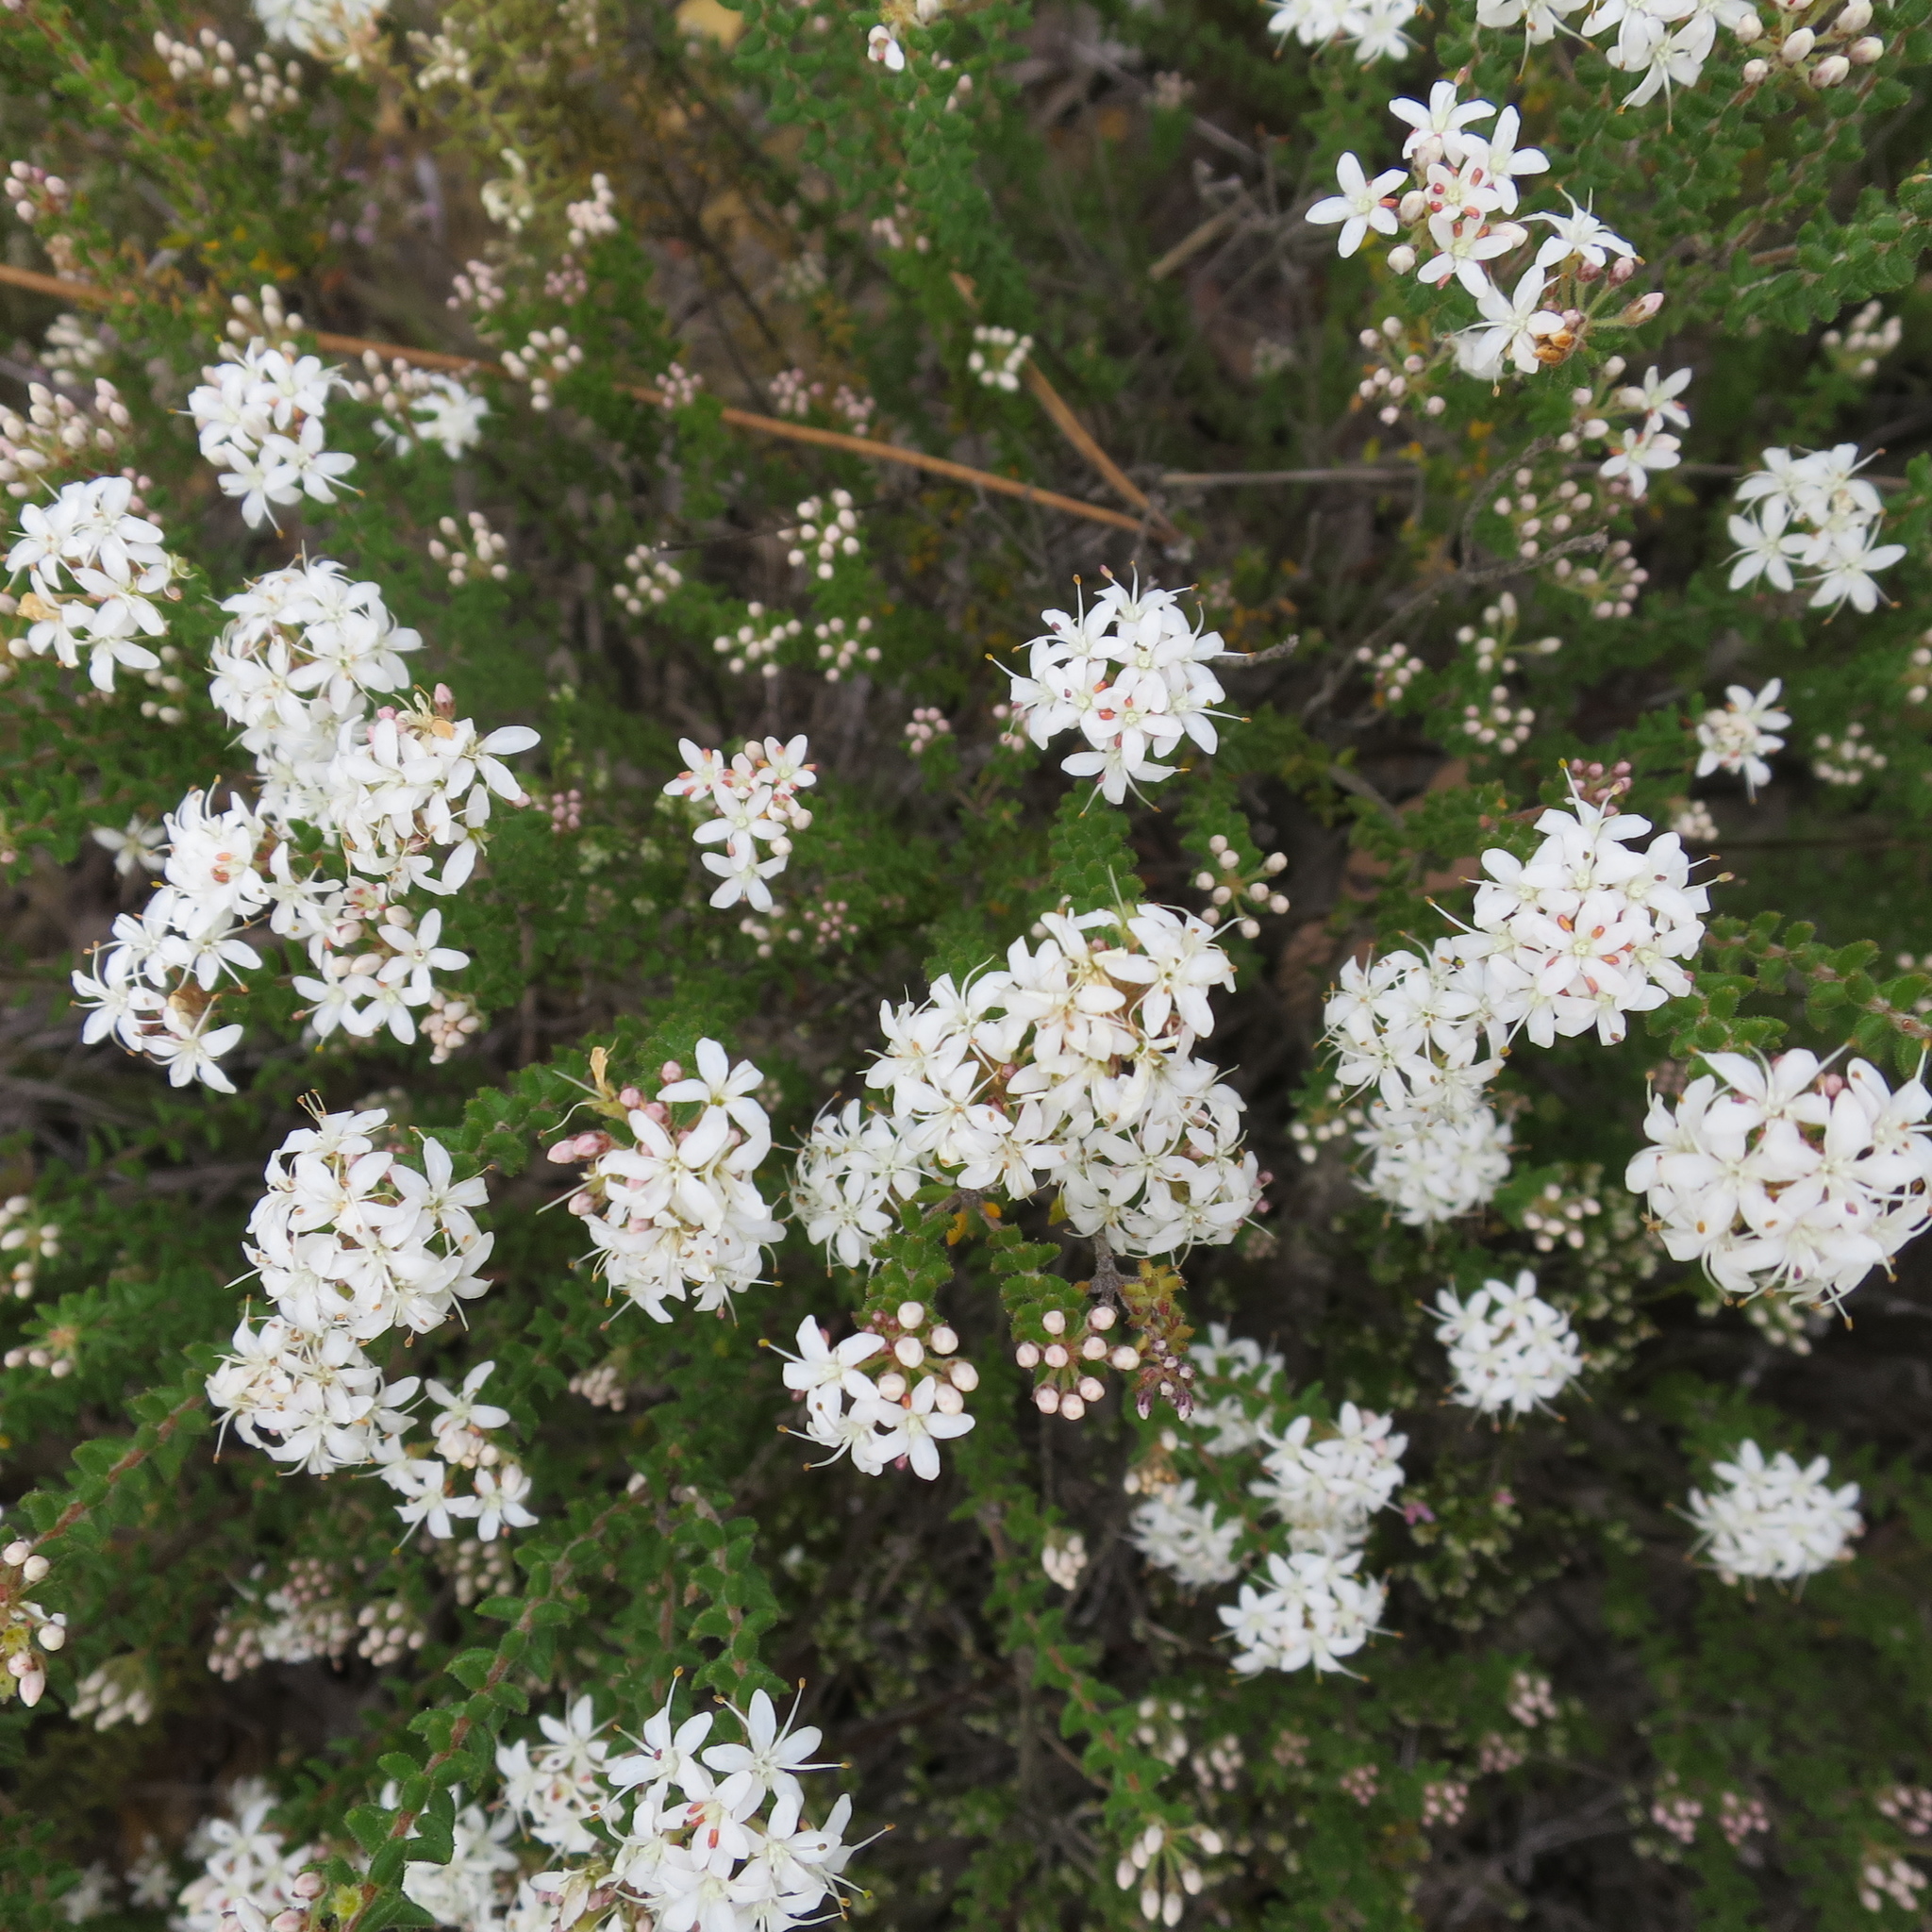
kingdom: Plantae
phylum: Tracheophyta
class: Magnoliopsida
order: Sapindales
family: Rutaceae
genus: Agathosma
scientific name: Agathosma mundtii
